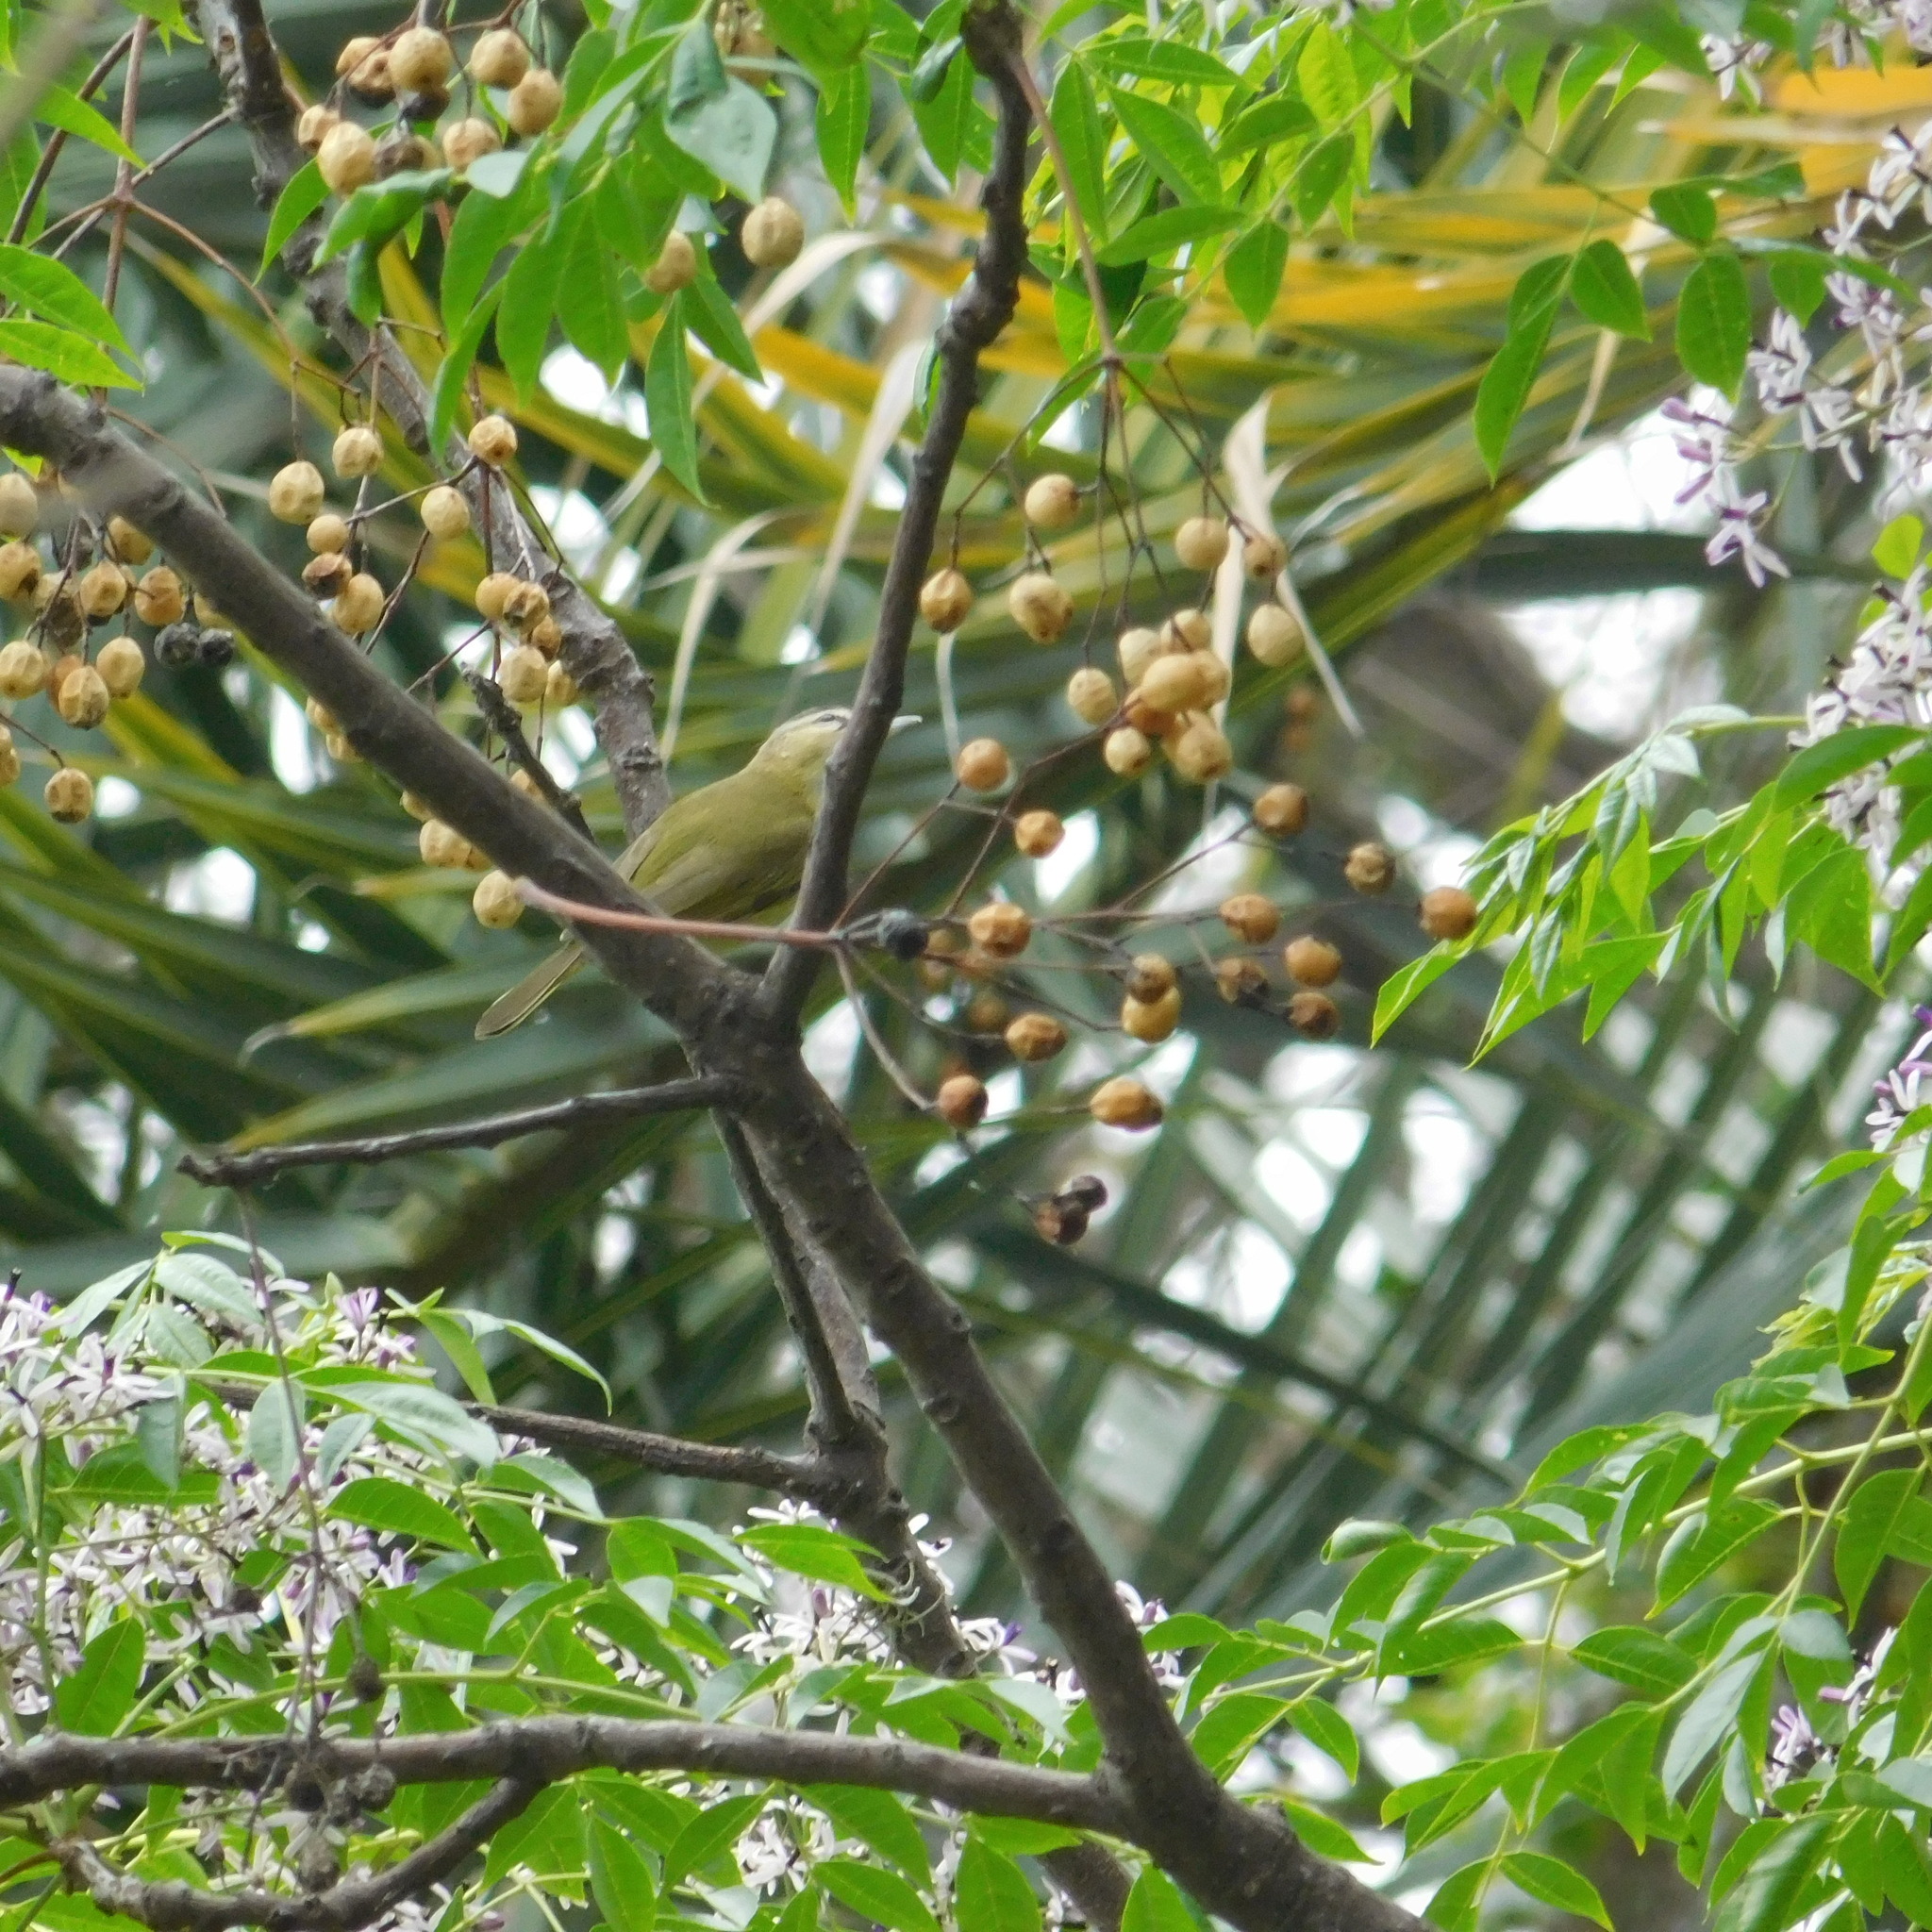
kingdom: Animalia
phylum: Chordata
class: Aves
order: Passeriformes
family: Vireonidae
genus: Vireo
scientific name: Vireo olivaceus
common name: Red-eyed vireo
